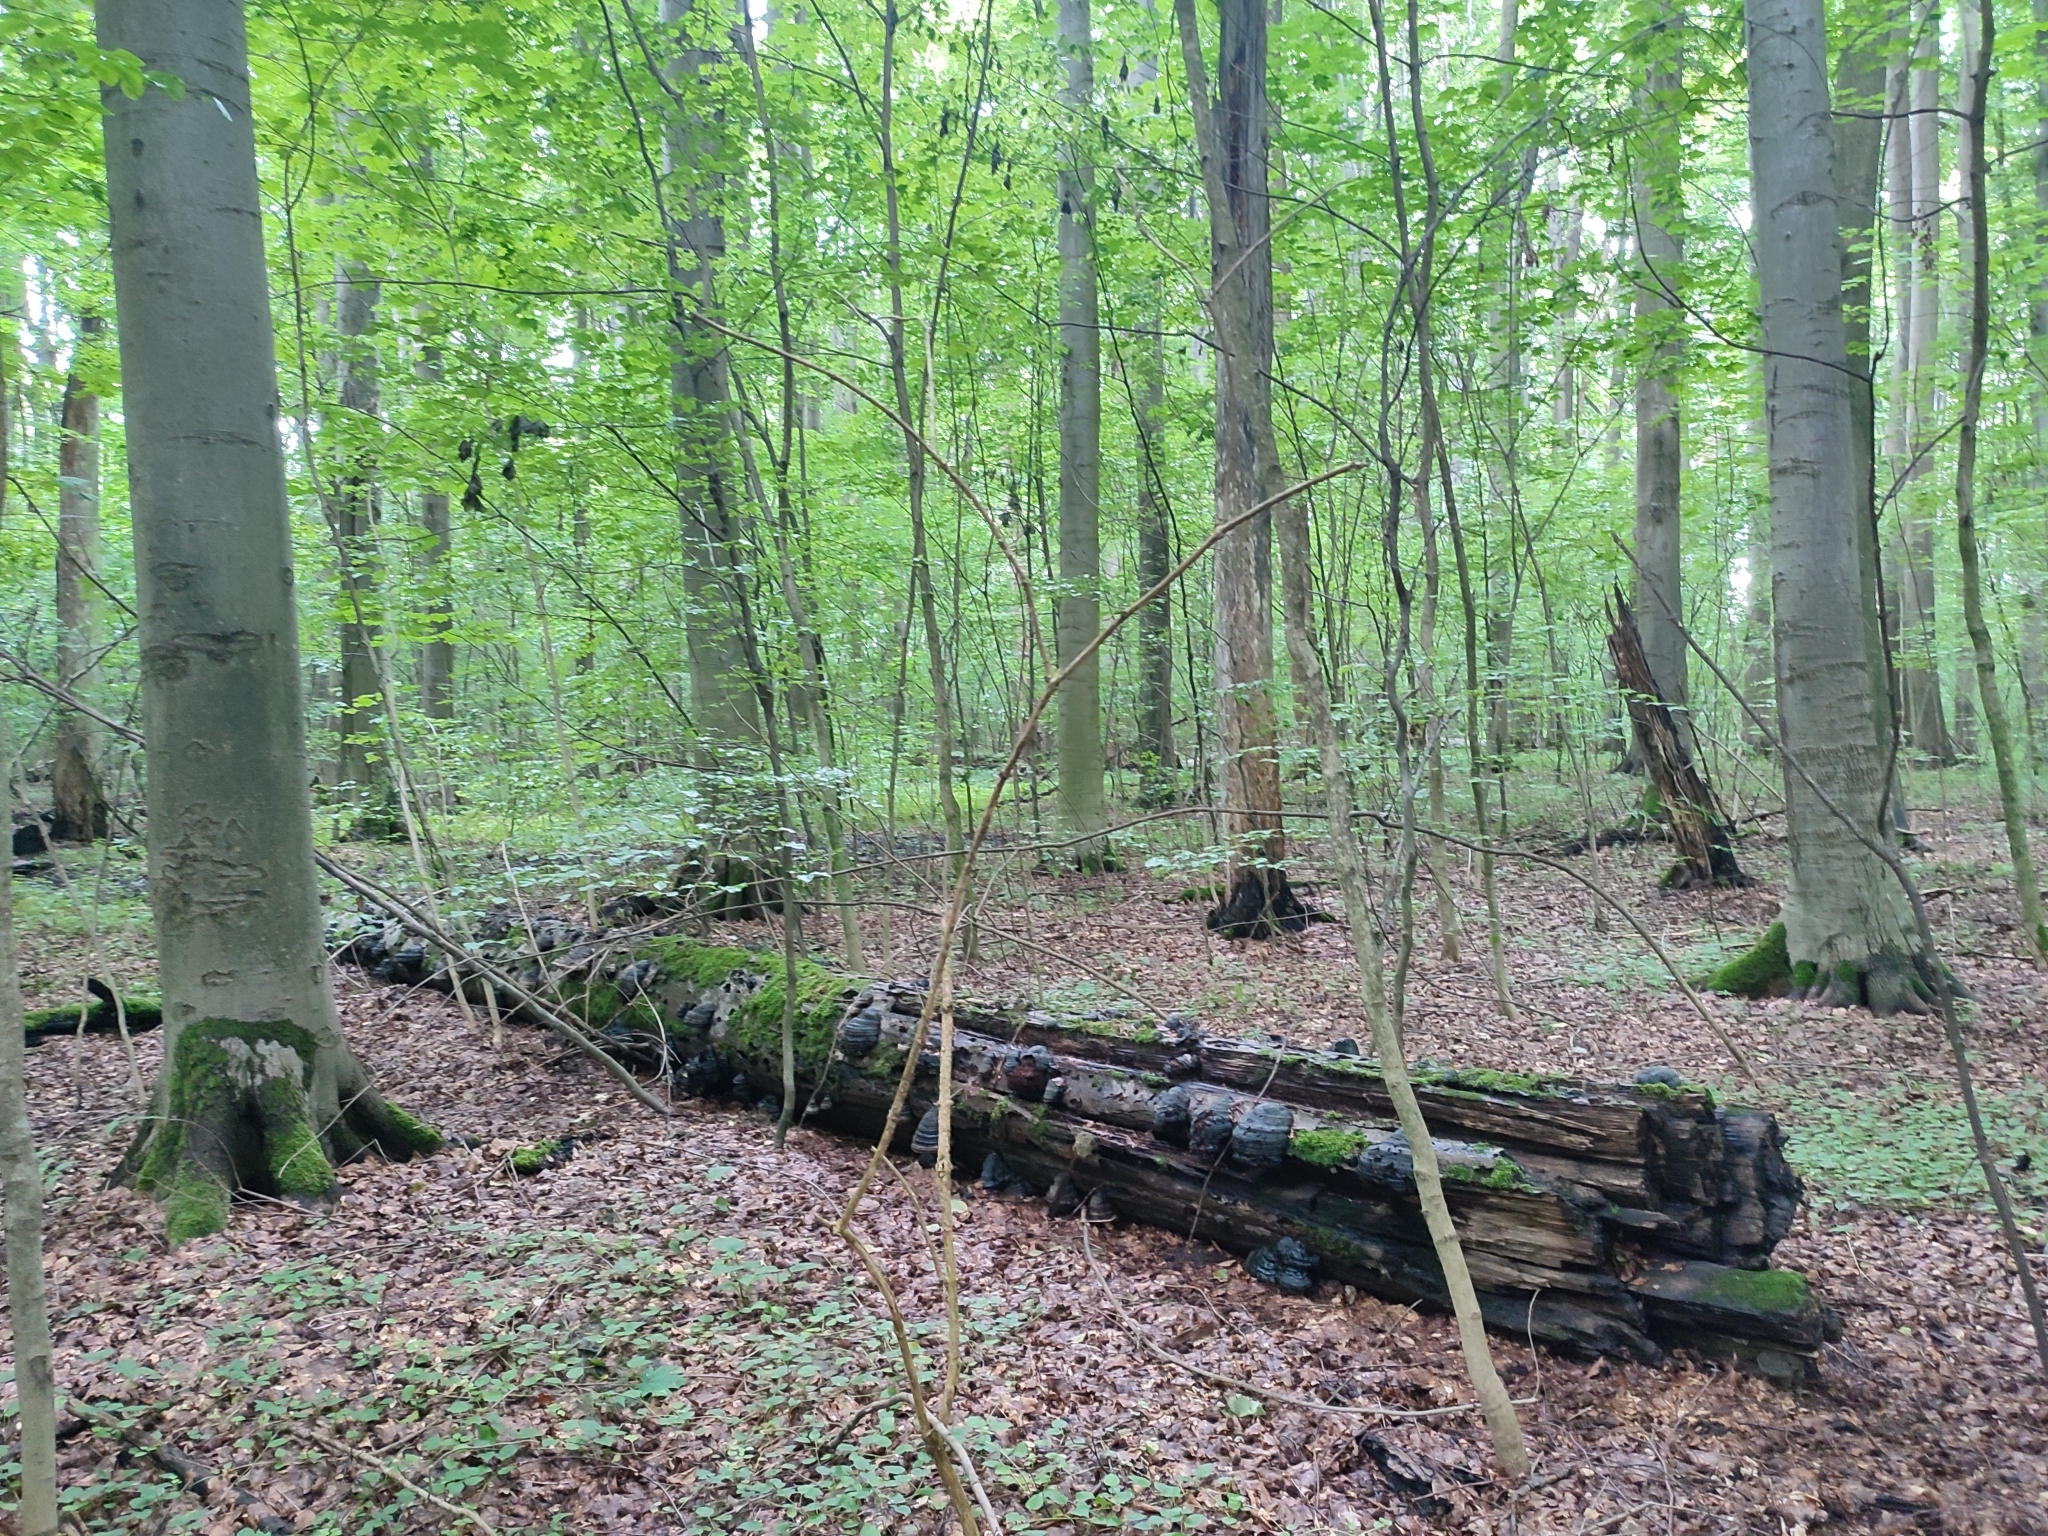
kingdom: Plantae
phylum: Tracheophyta
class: Magnoliopsida
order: Fagales
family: Fagaceae
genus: Fagus
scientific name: Fagus sylvatica
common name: Beech
